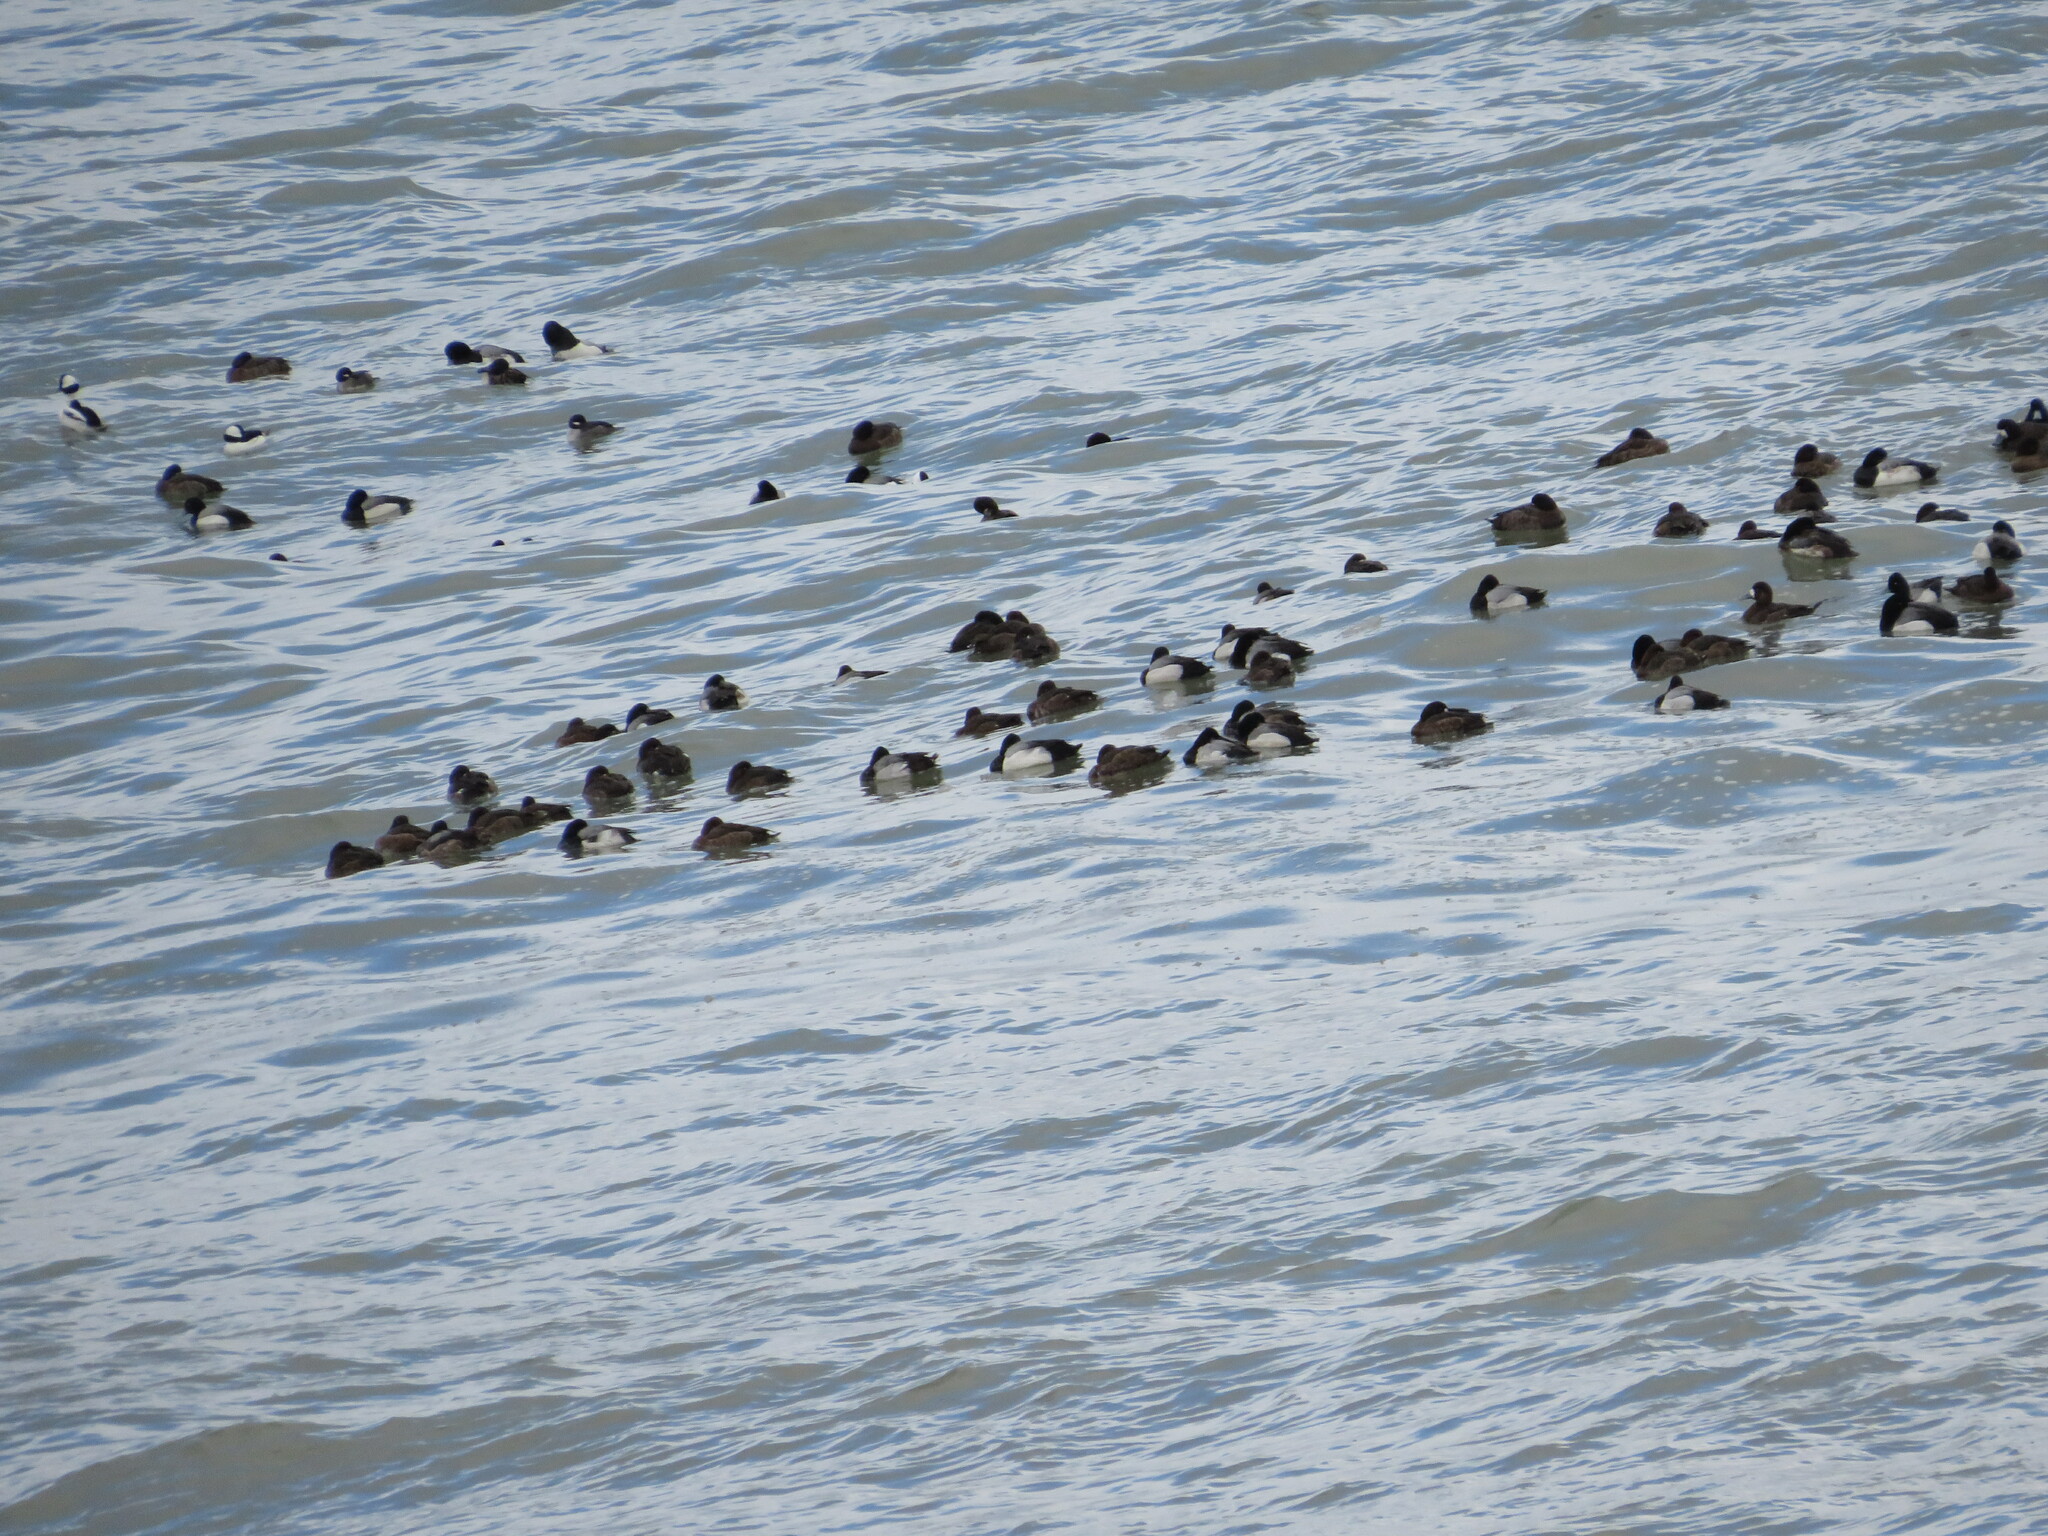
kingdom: Animalia
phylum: Chordata
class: Aves
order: Anseriformes
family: Anatidae
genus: Aythya
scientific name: Aythya marila
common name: Greater scaup
